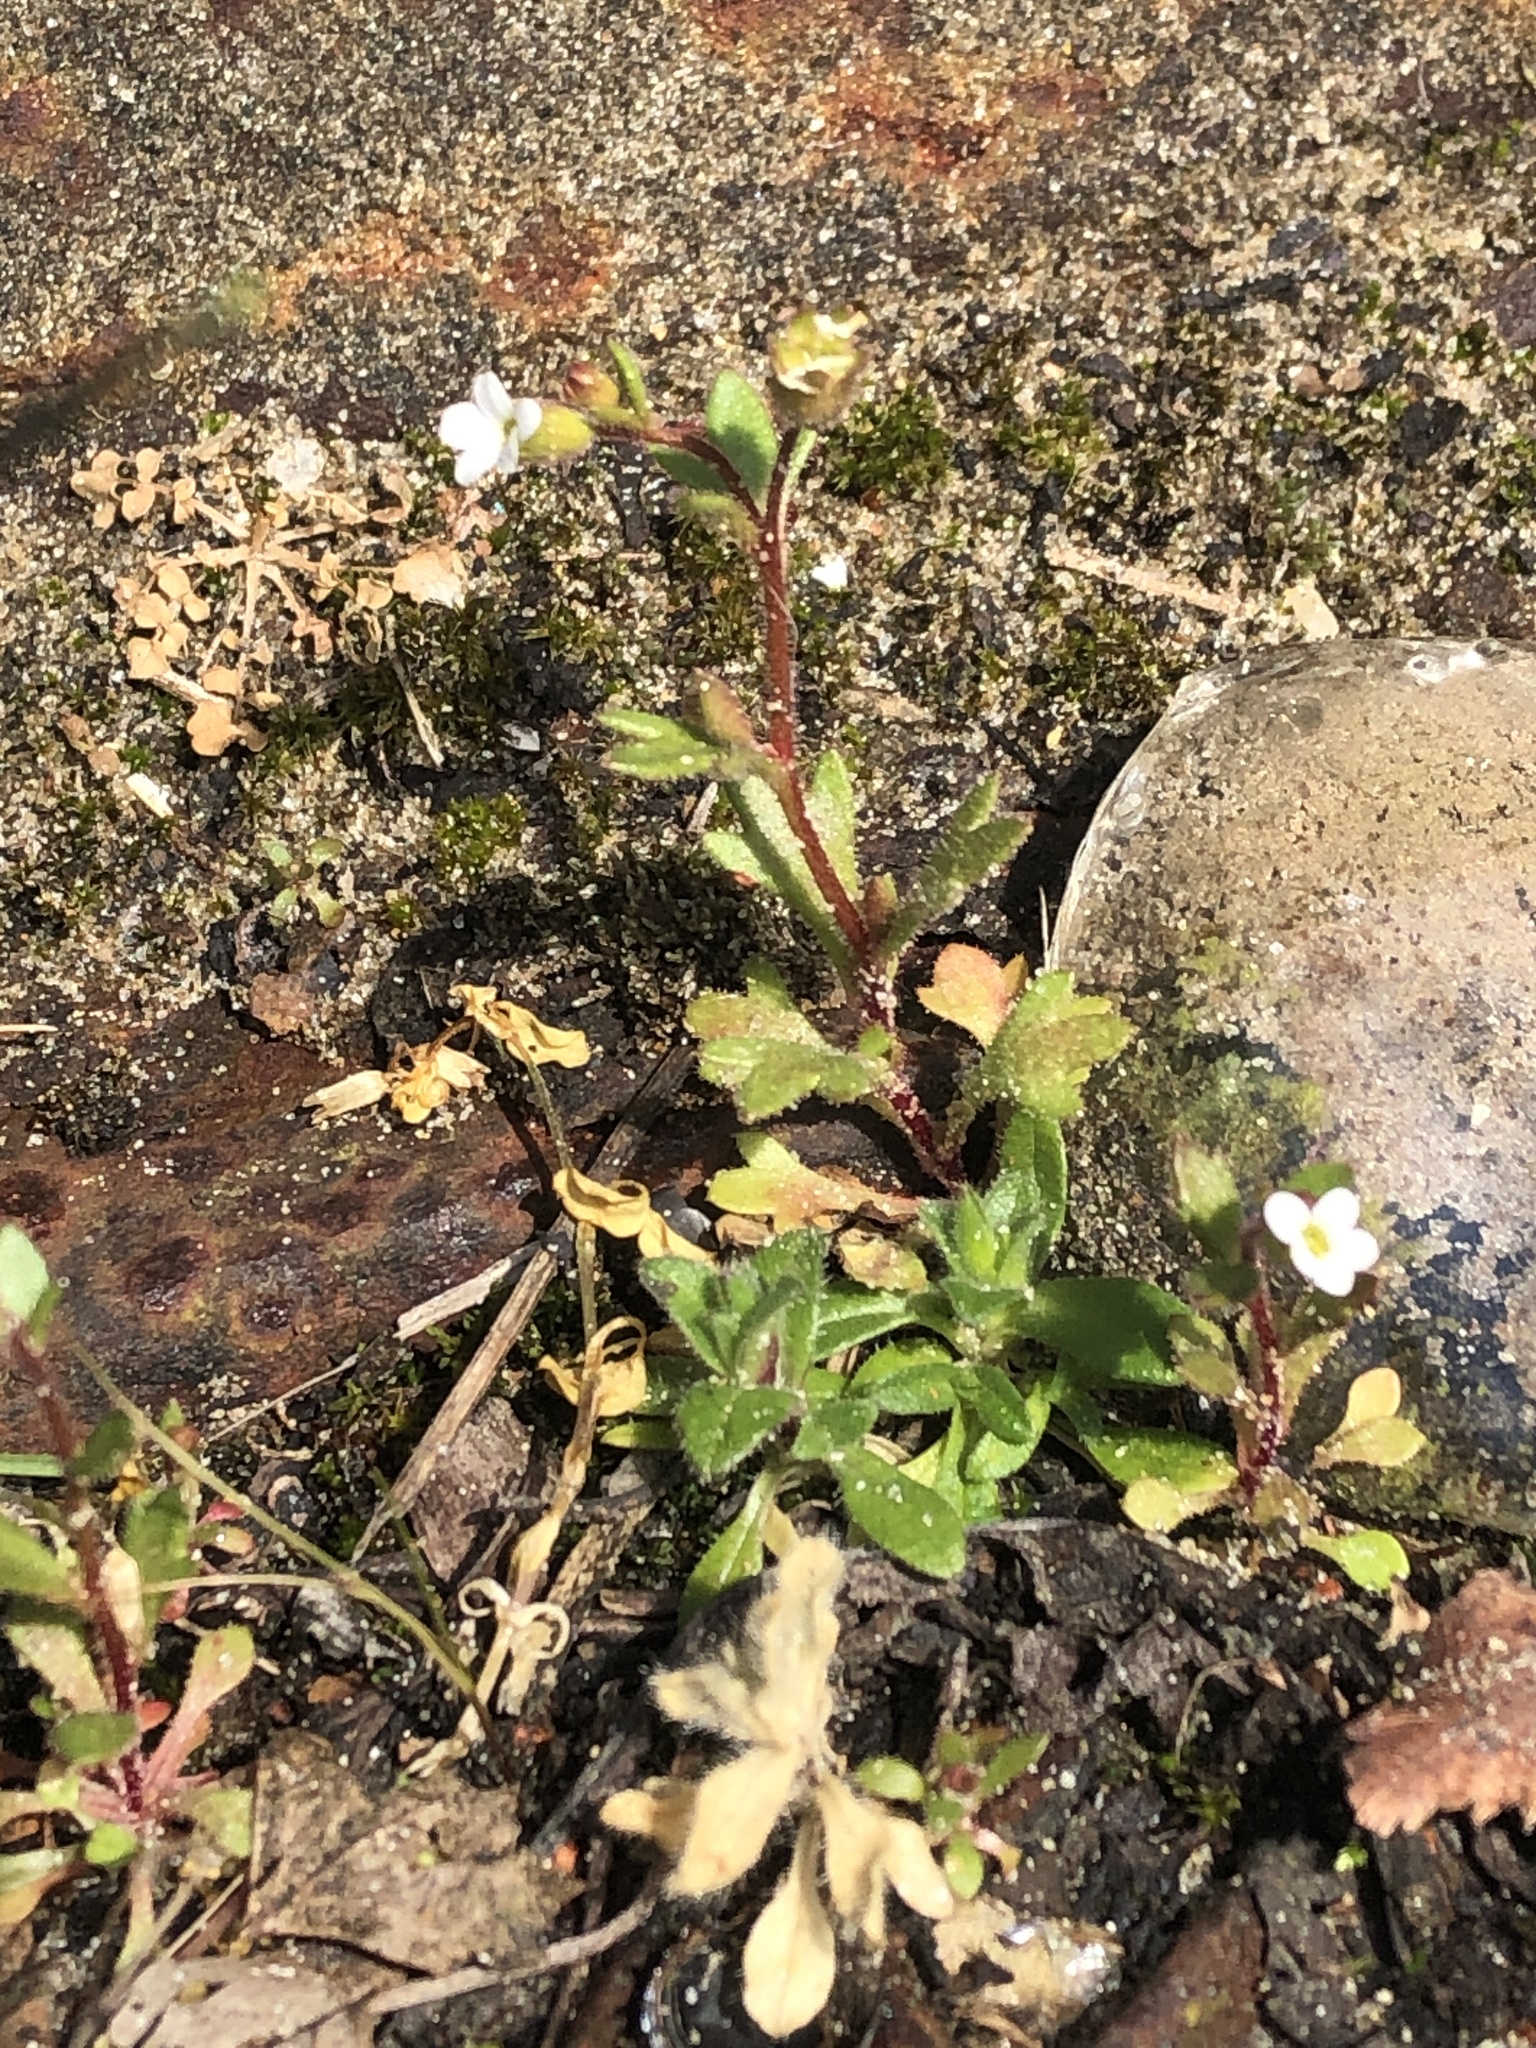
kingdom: Plantae
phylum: Tracheophyta
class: Magnoliopsida
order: Saxifragales
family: Saxifragaceae
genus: Saxifraga
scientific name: Saxifraga tridactylites
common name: Rue-leaved saxifrage
